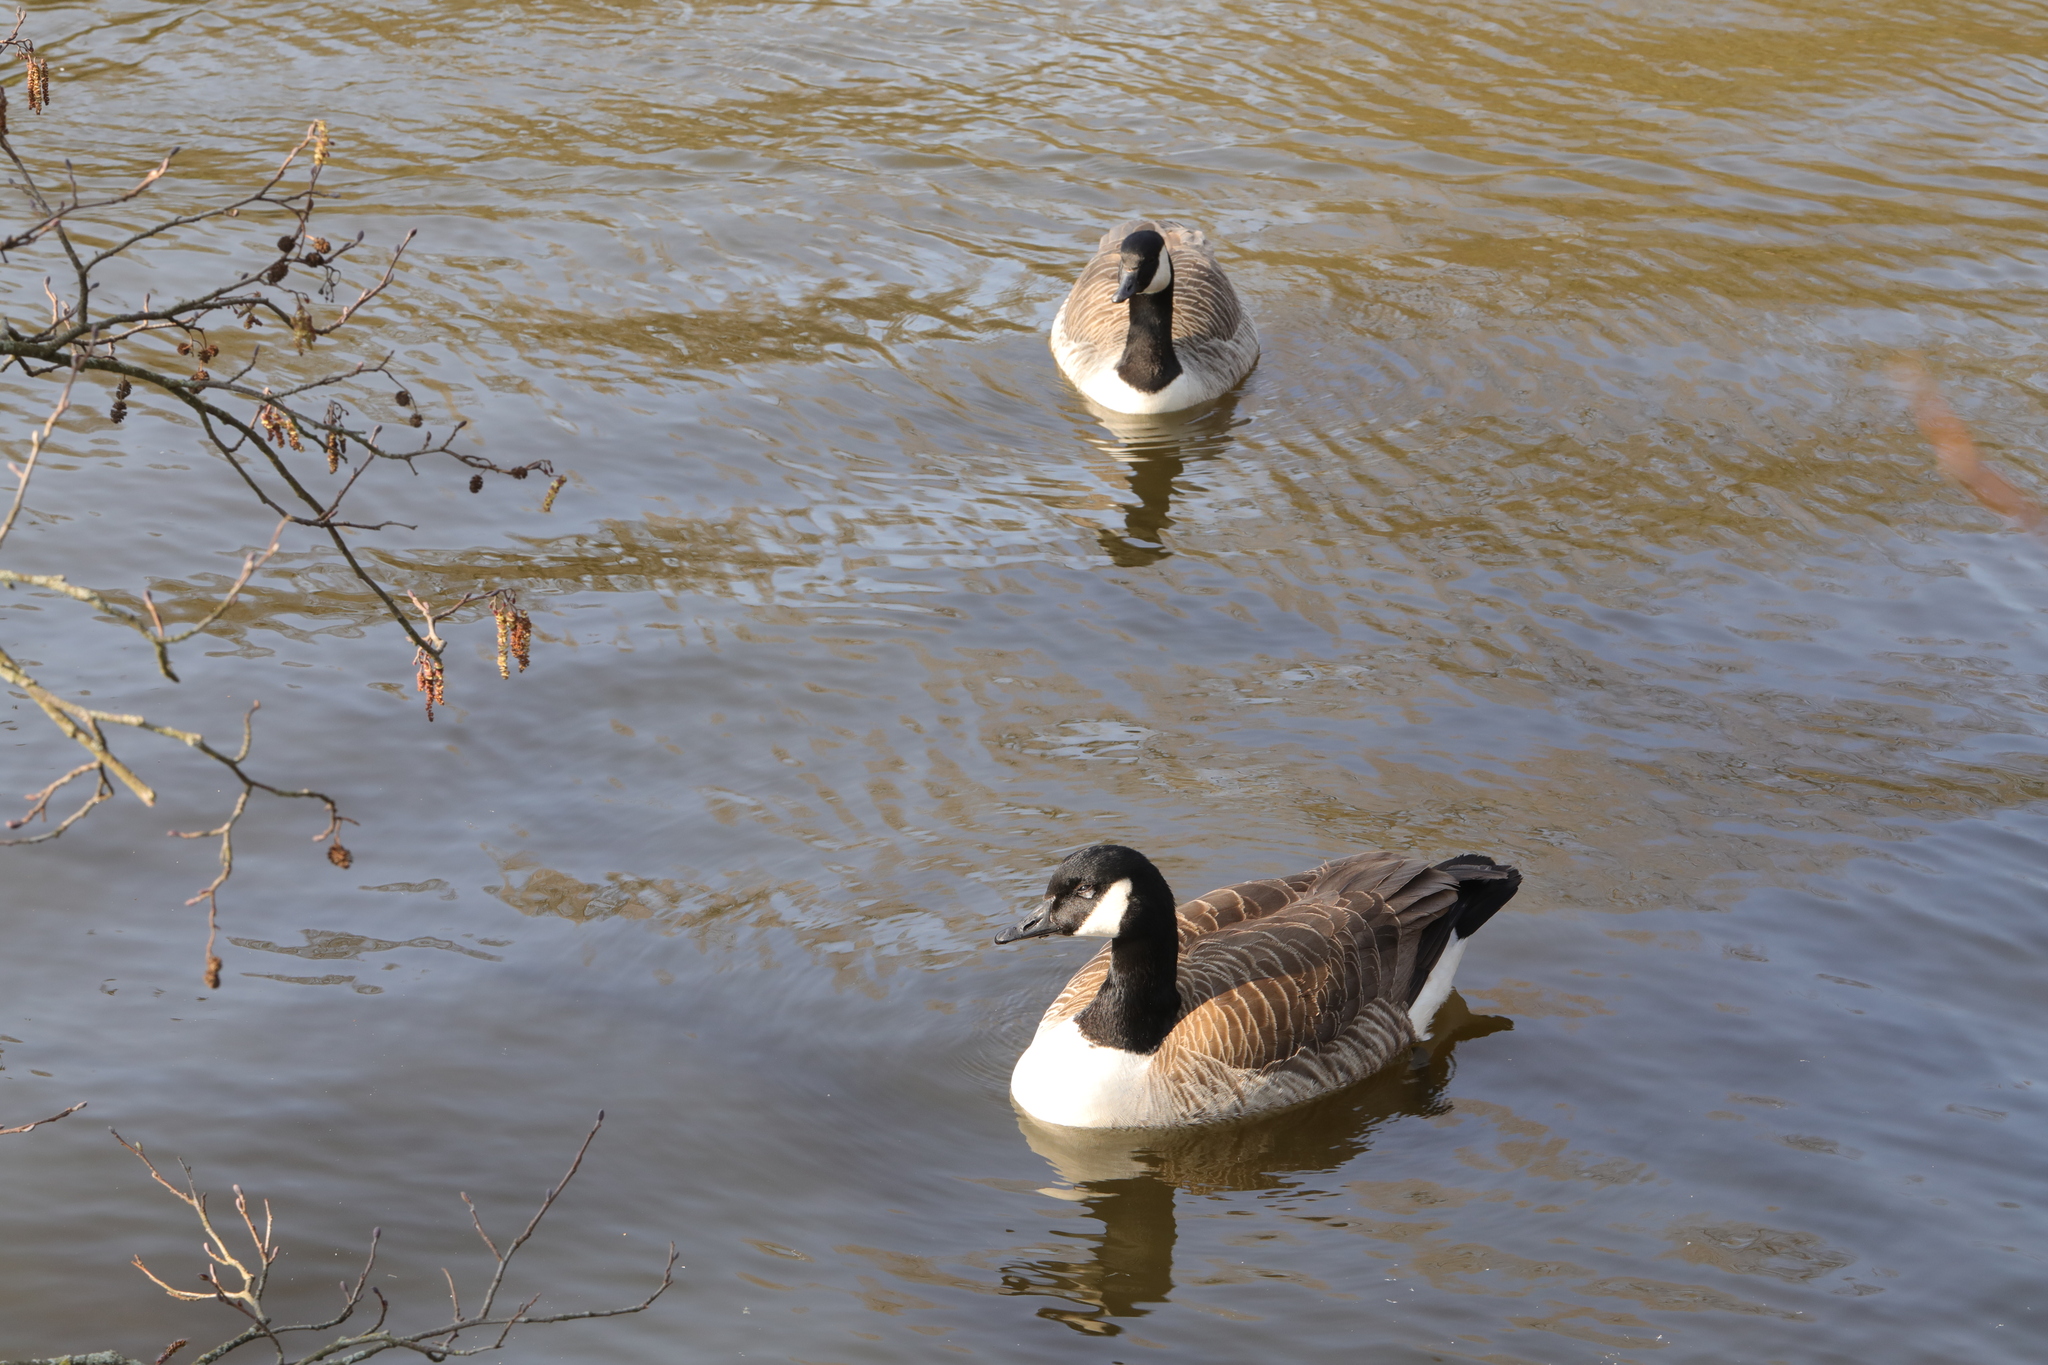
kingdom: Animalia
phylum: Chordata
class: Aves
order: Anseriformes
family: Anatidae
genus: Branta
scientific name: Branta canadensis
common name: Canada goose
